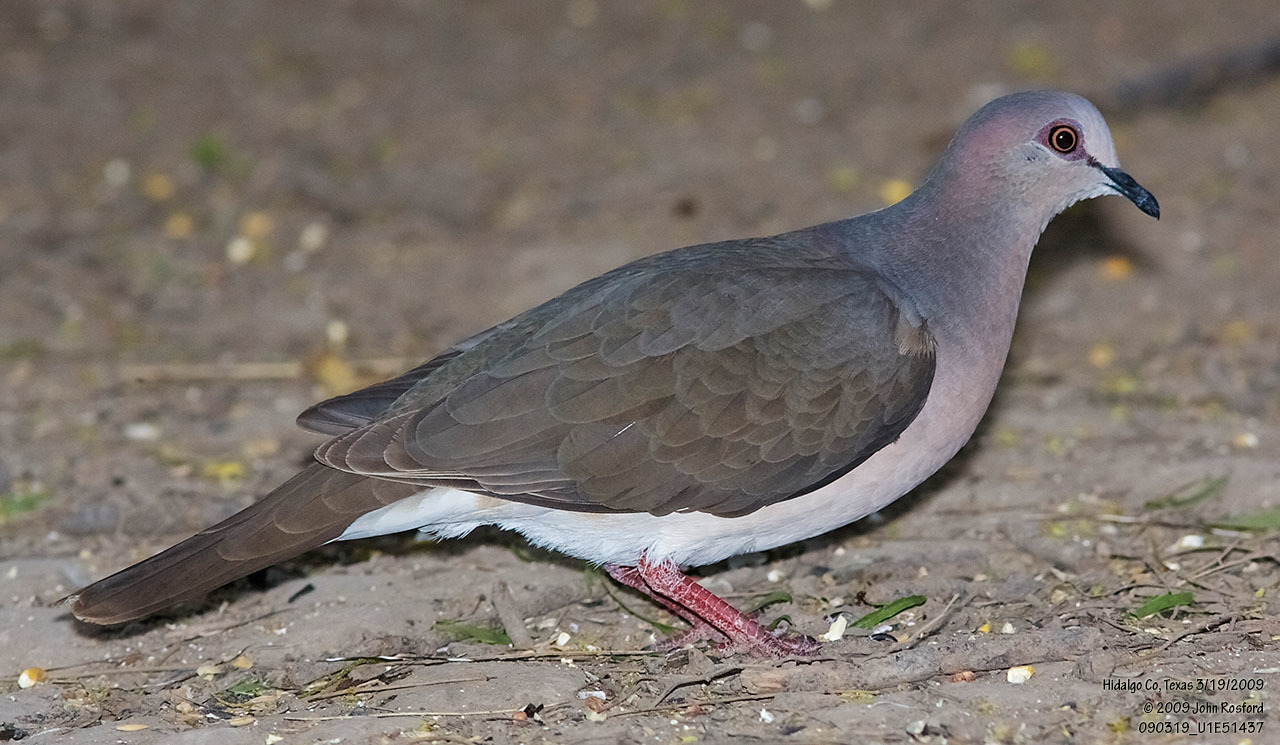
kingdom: Animalia
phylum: Chordata
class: Aves
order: Columbiformes
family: Columbidae
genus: Leptotila
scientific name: Leptotila verreauxi
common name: White-tipped dove
